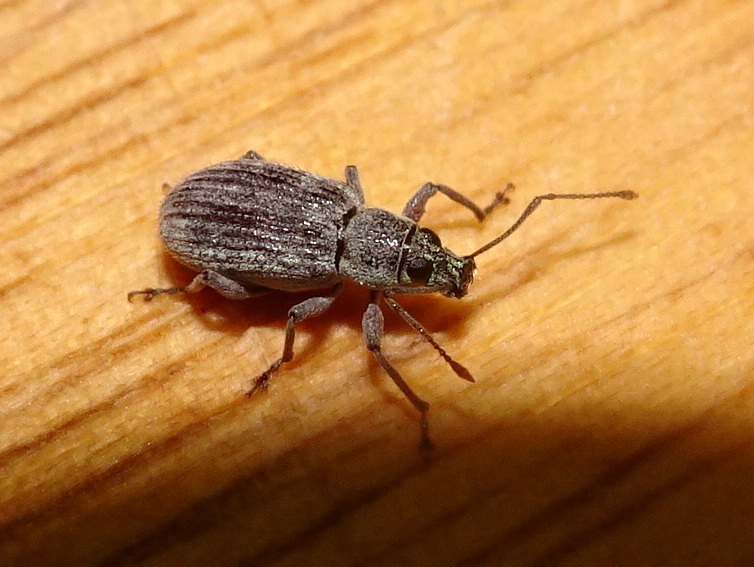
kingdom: Animalia
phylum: Arthropoda
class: Insecta
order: Coleoptera
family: Curculionidae
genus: Cyrtepistomus
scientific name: Cyrtepistomus castaneus
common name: Weevil
